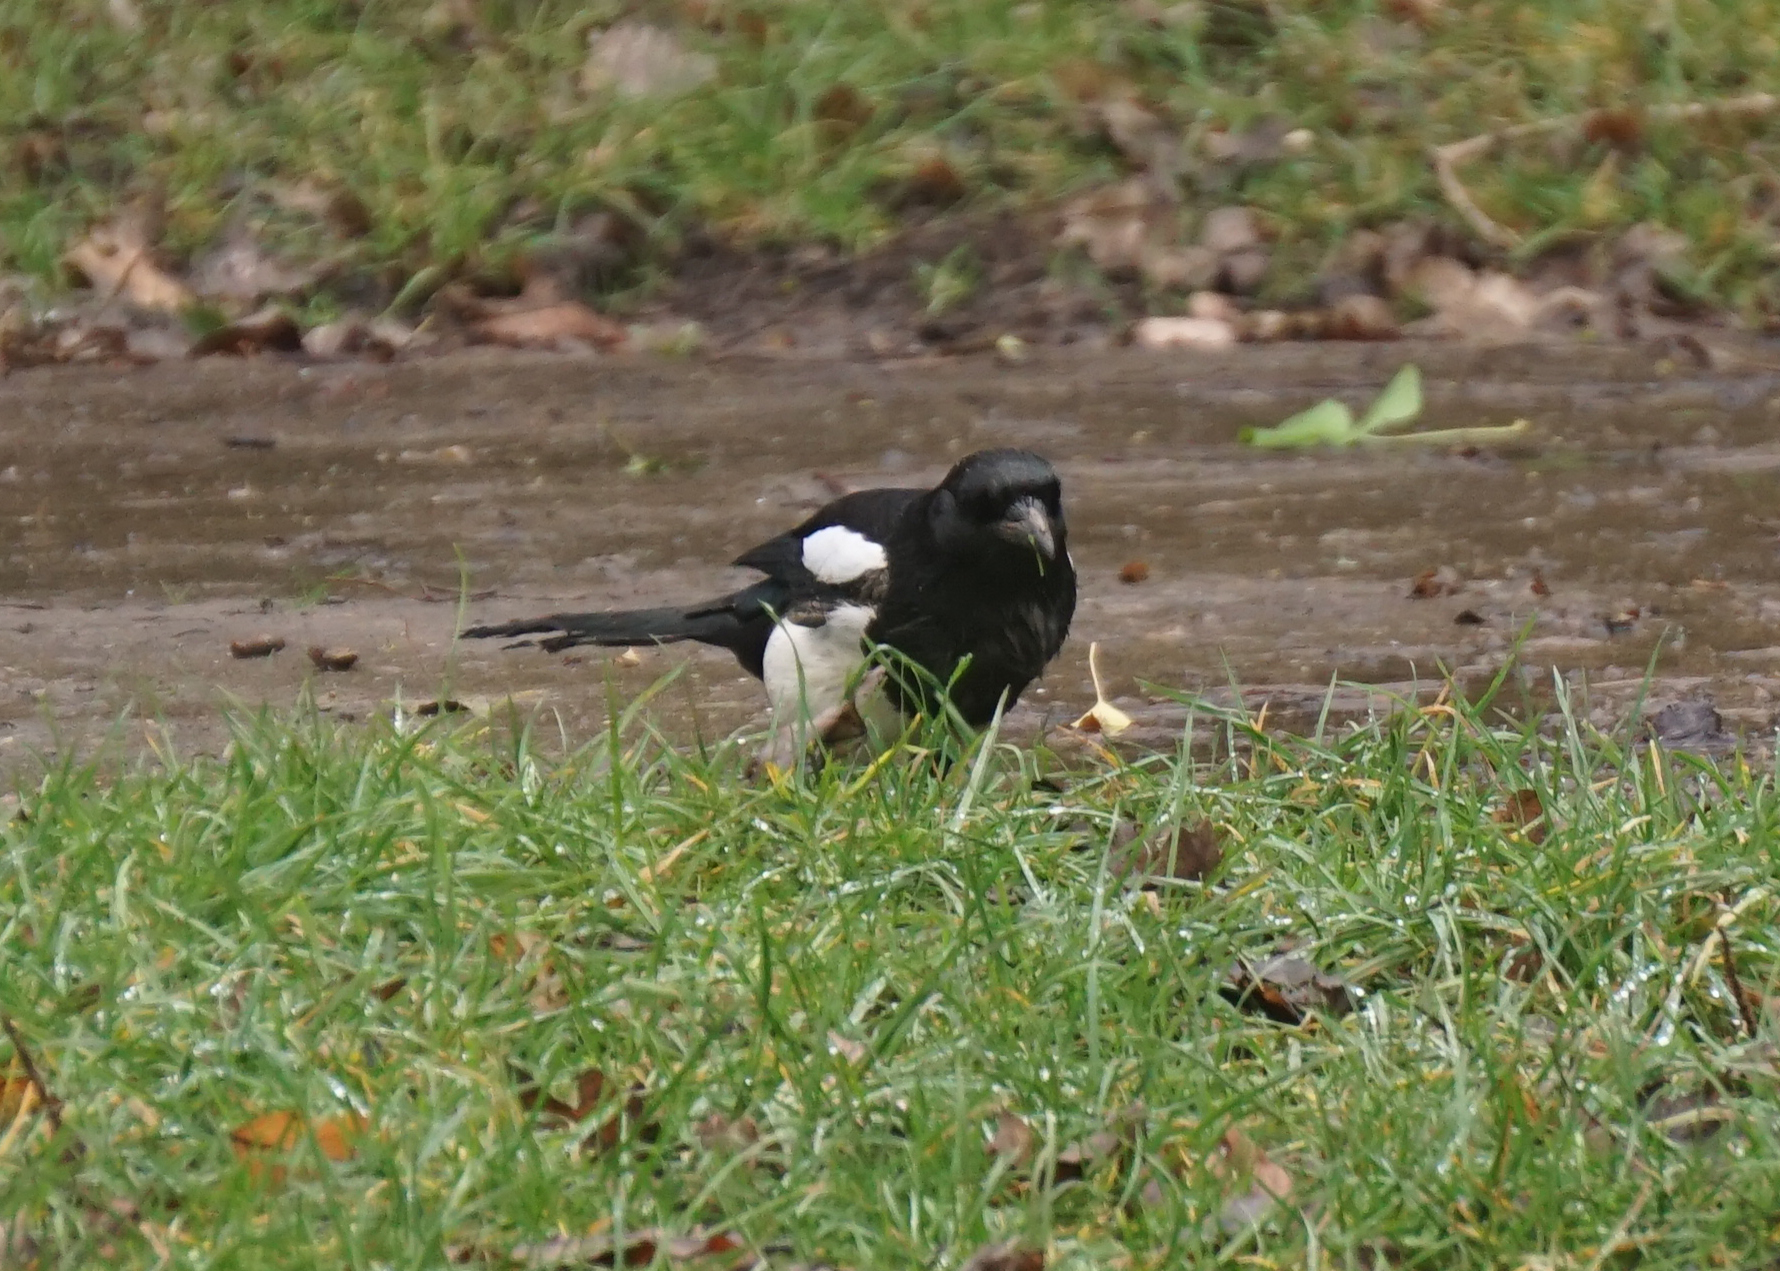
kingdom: Animalia
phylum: Chordata
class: Aves
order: Passeriformes
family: Corvidae
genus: Pica
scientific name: Pica pica
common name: Eurasian magpie
